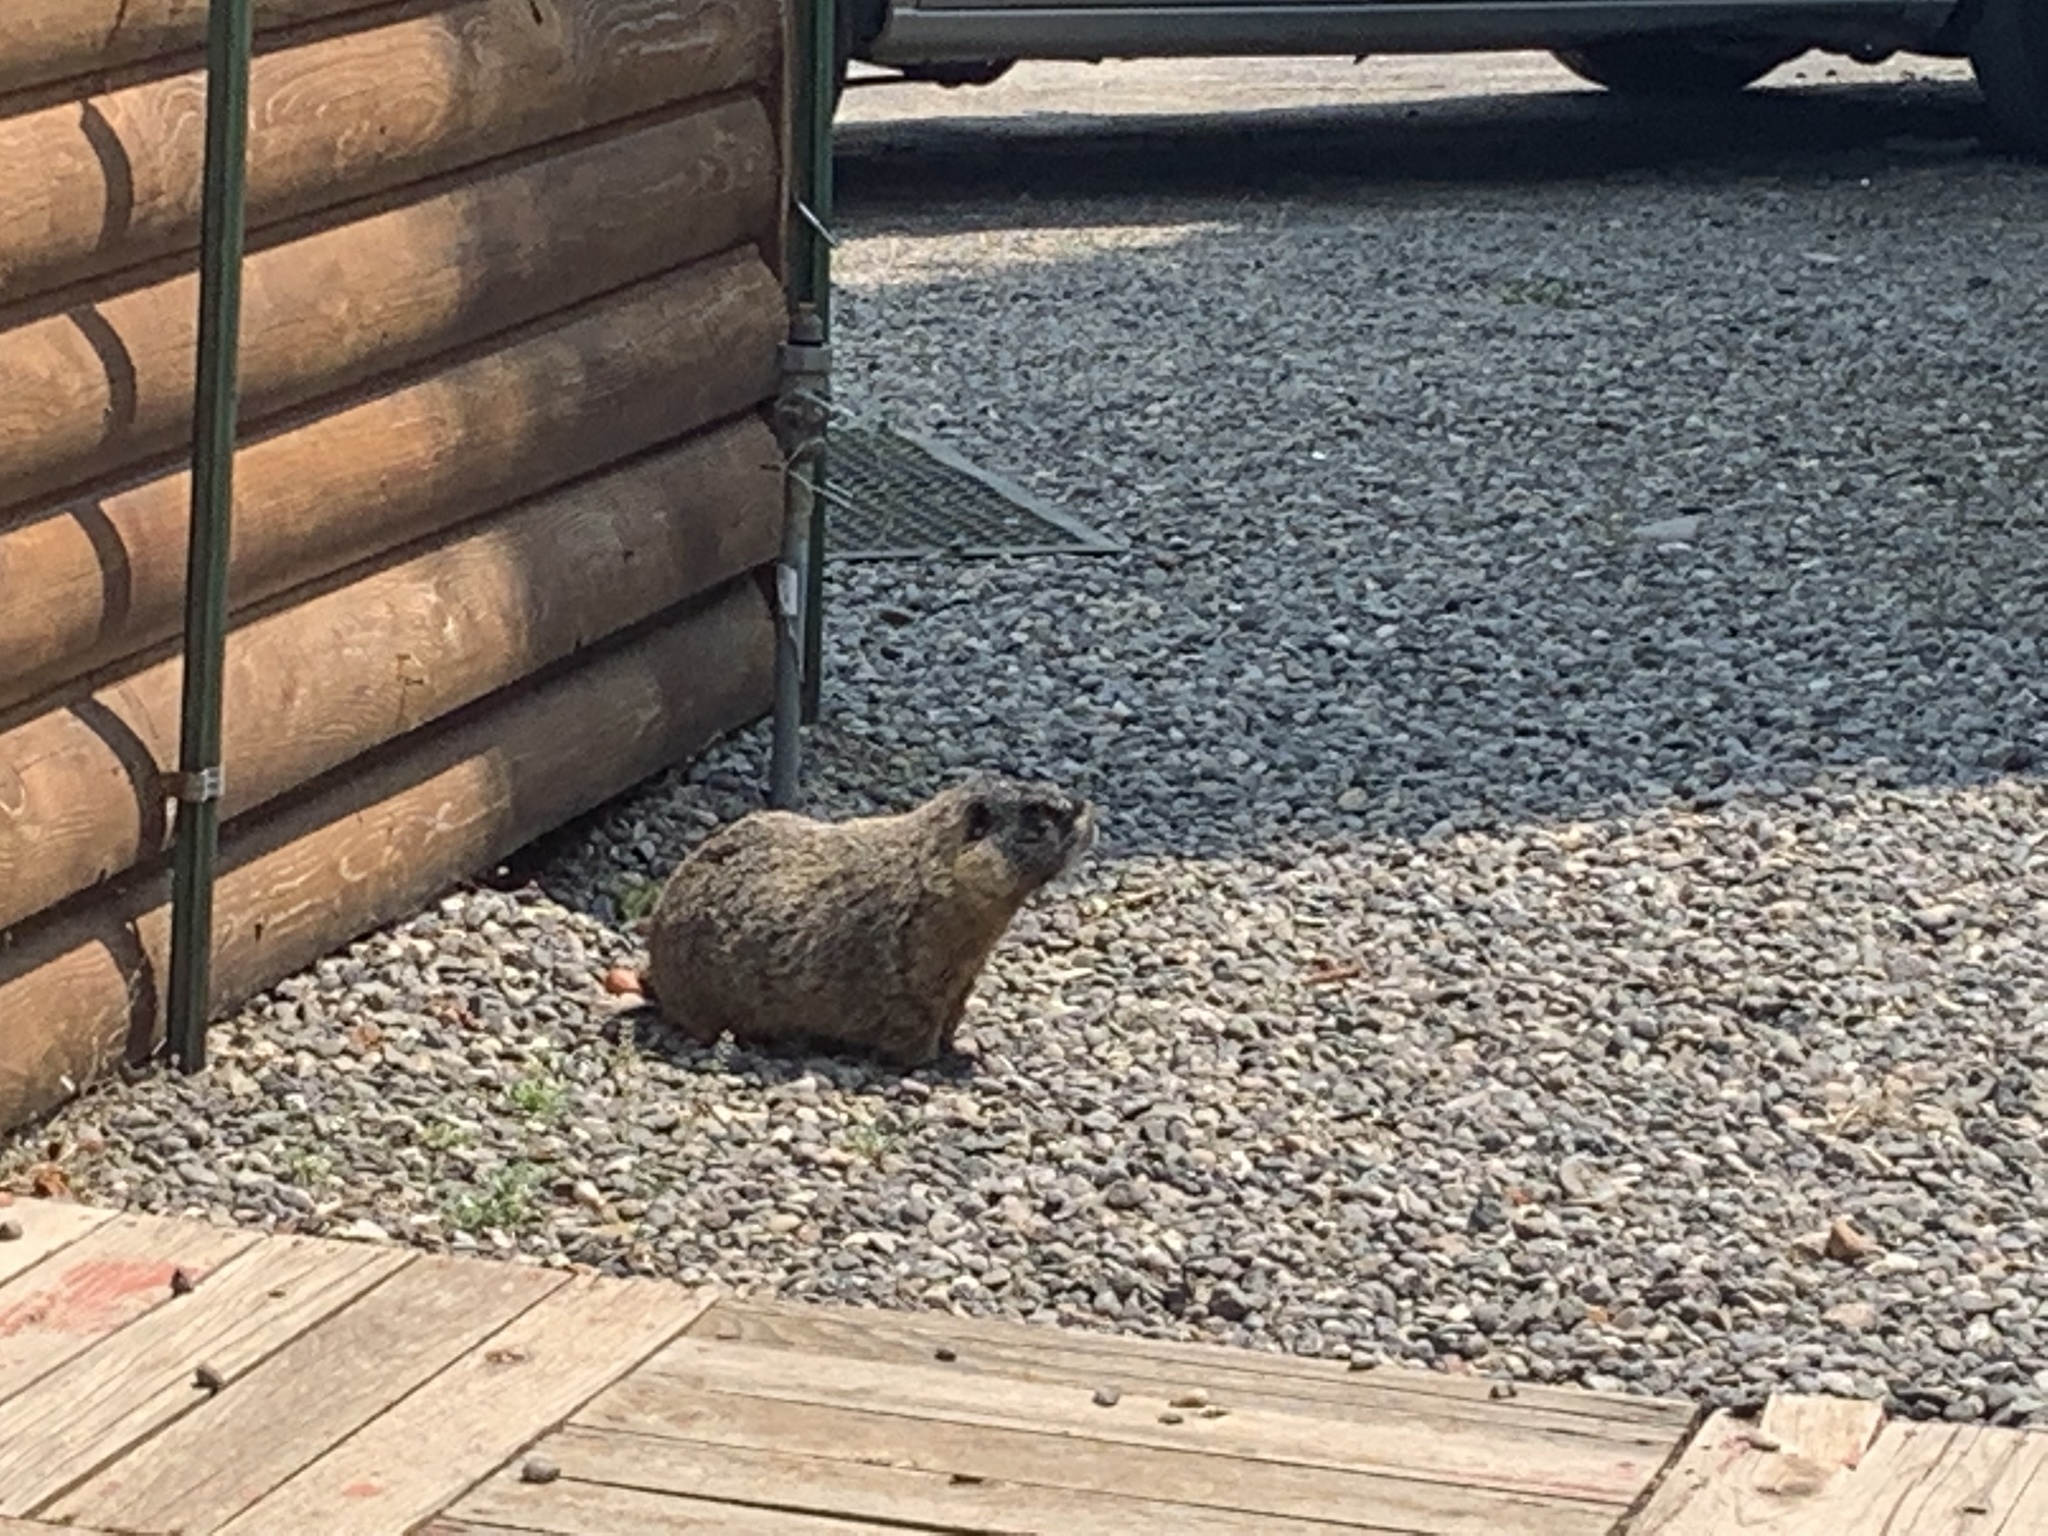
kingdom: Animalia
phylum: Chordata
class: Mammalia
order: Rodentia
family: Sciuridae
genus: Marmota
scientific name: Marmota flaviventris
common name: Yellow-bellied marmot
